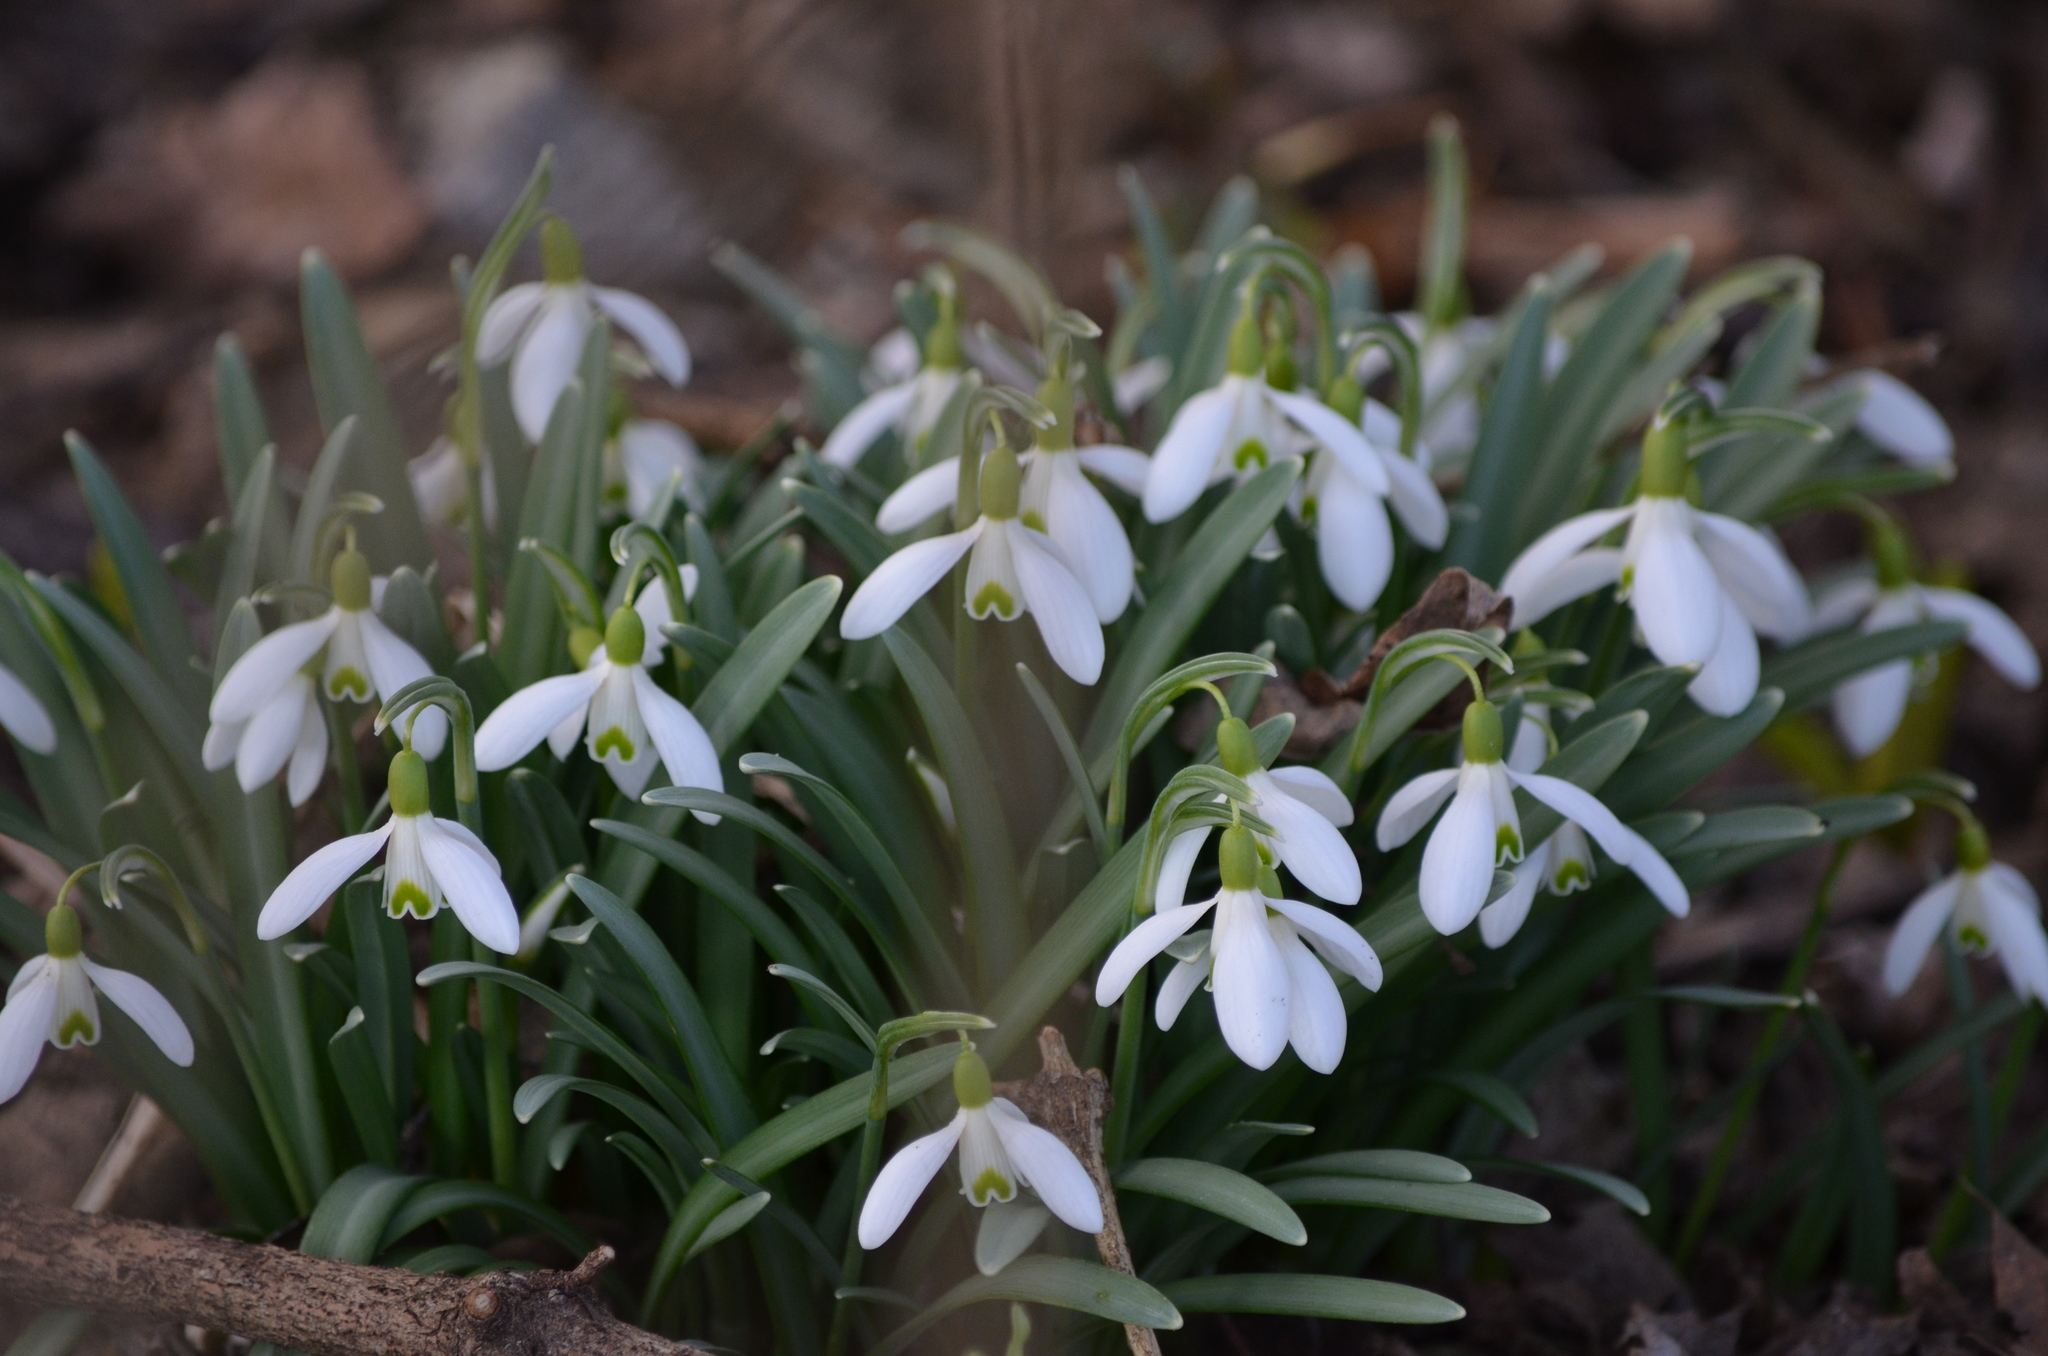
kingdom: Plantae
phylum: Tracheophyta
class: Liliopsida
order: Asparagales
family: Amaryllidaceae
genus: Galanthus
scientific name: Galanthus nivalis
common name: Snowdrop
